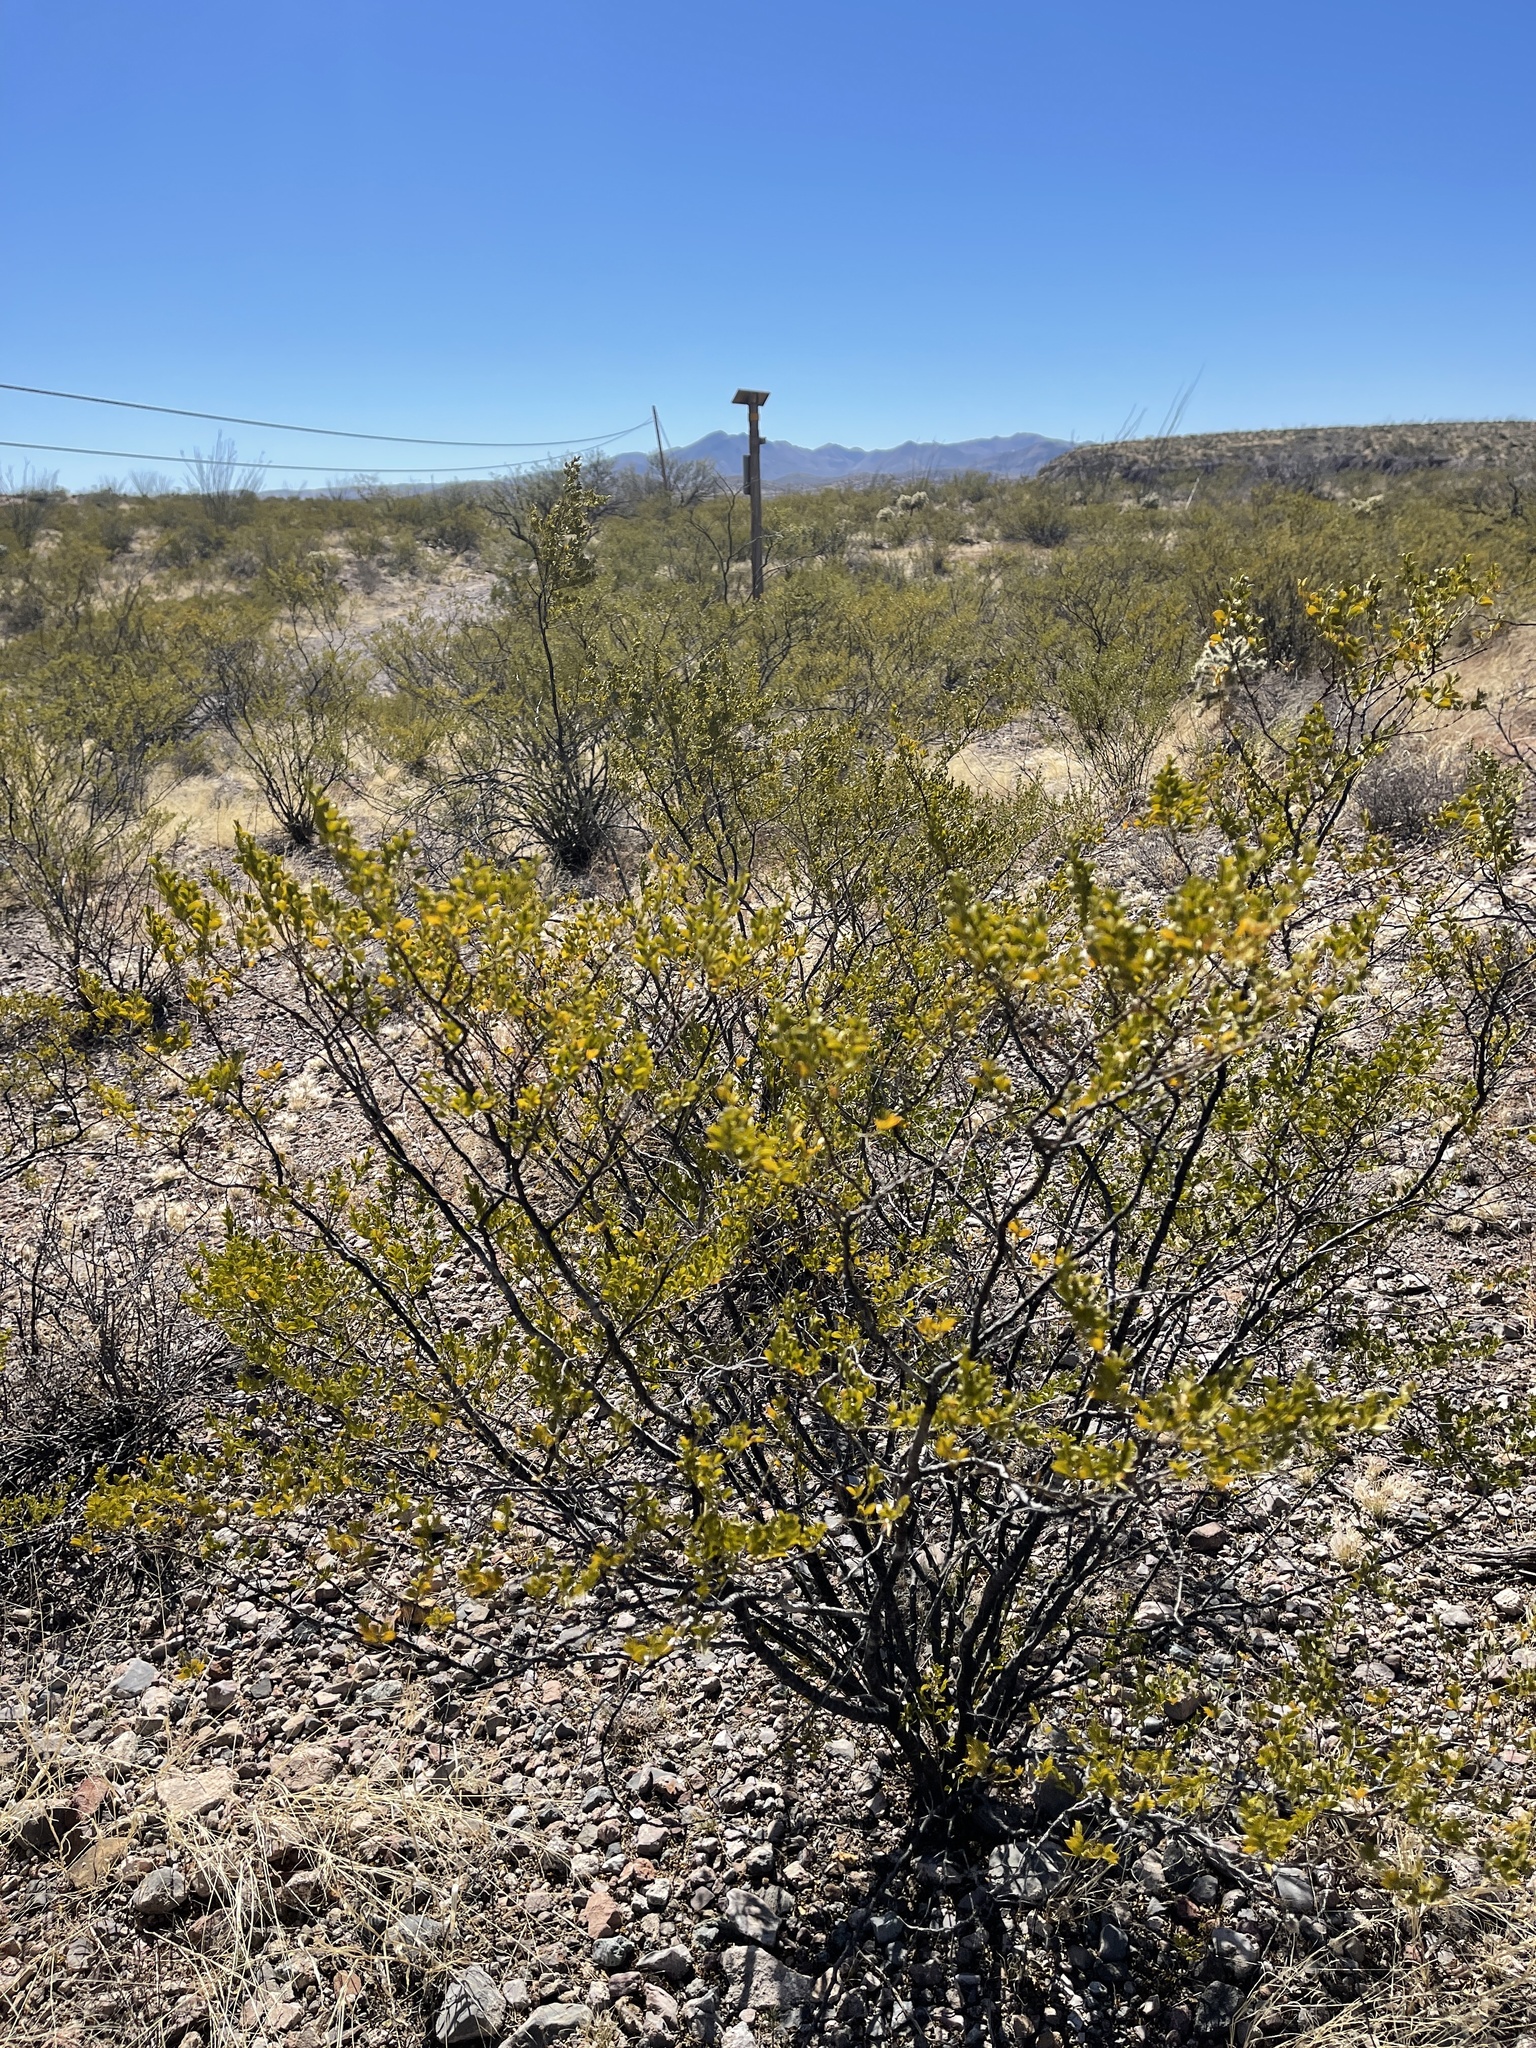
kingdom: Plantae
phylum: Tracheophyta
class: Magnoliopsida
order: Zygophyllales
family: Zygophyllaceae
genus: Larrea
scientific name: Larrea tridentata
